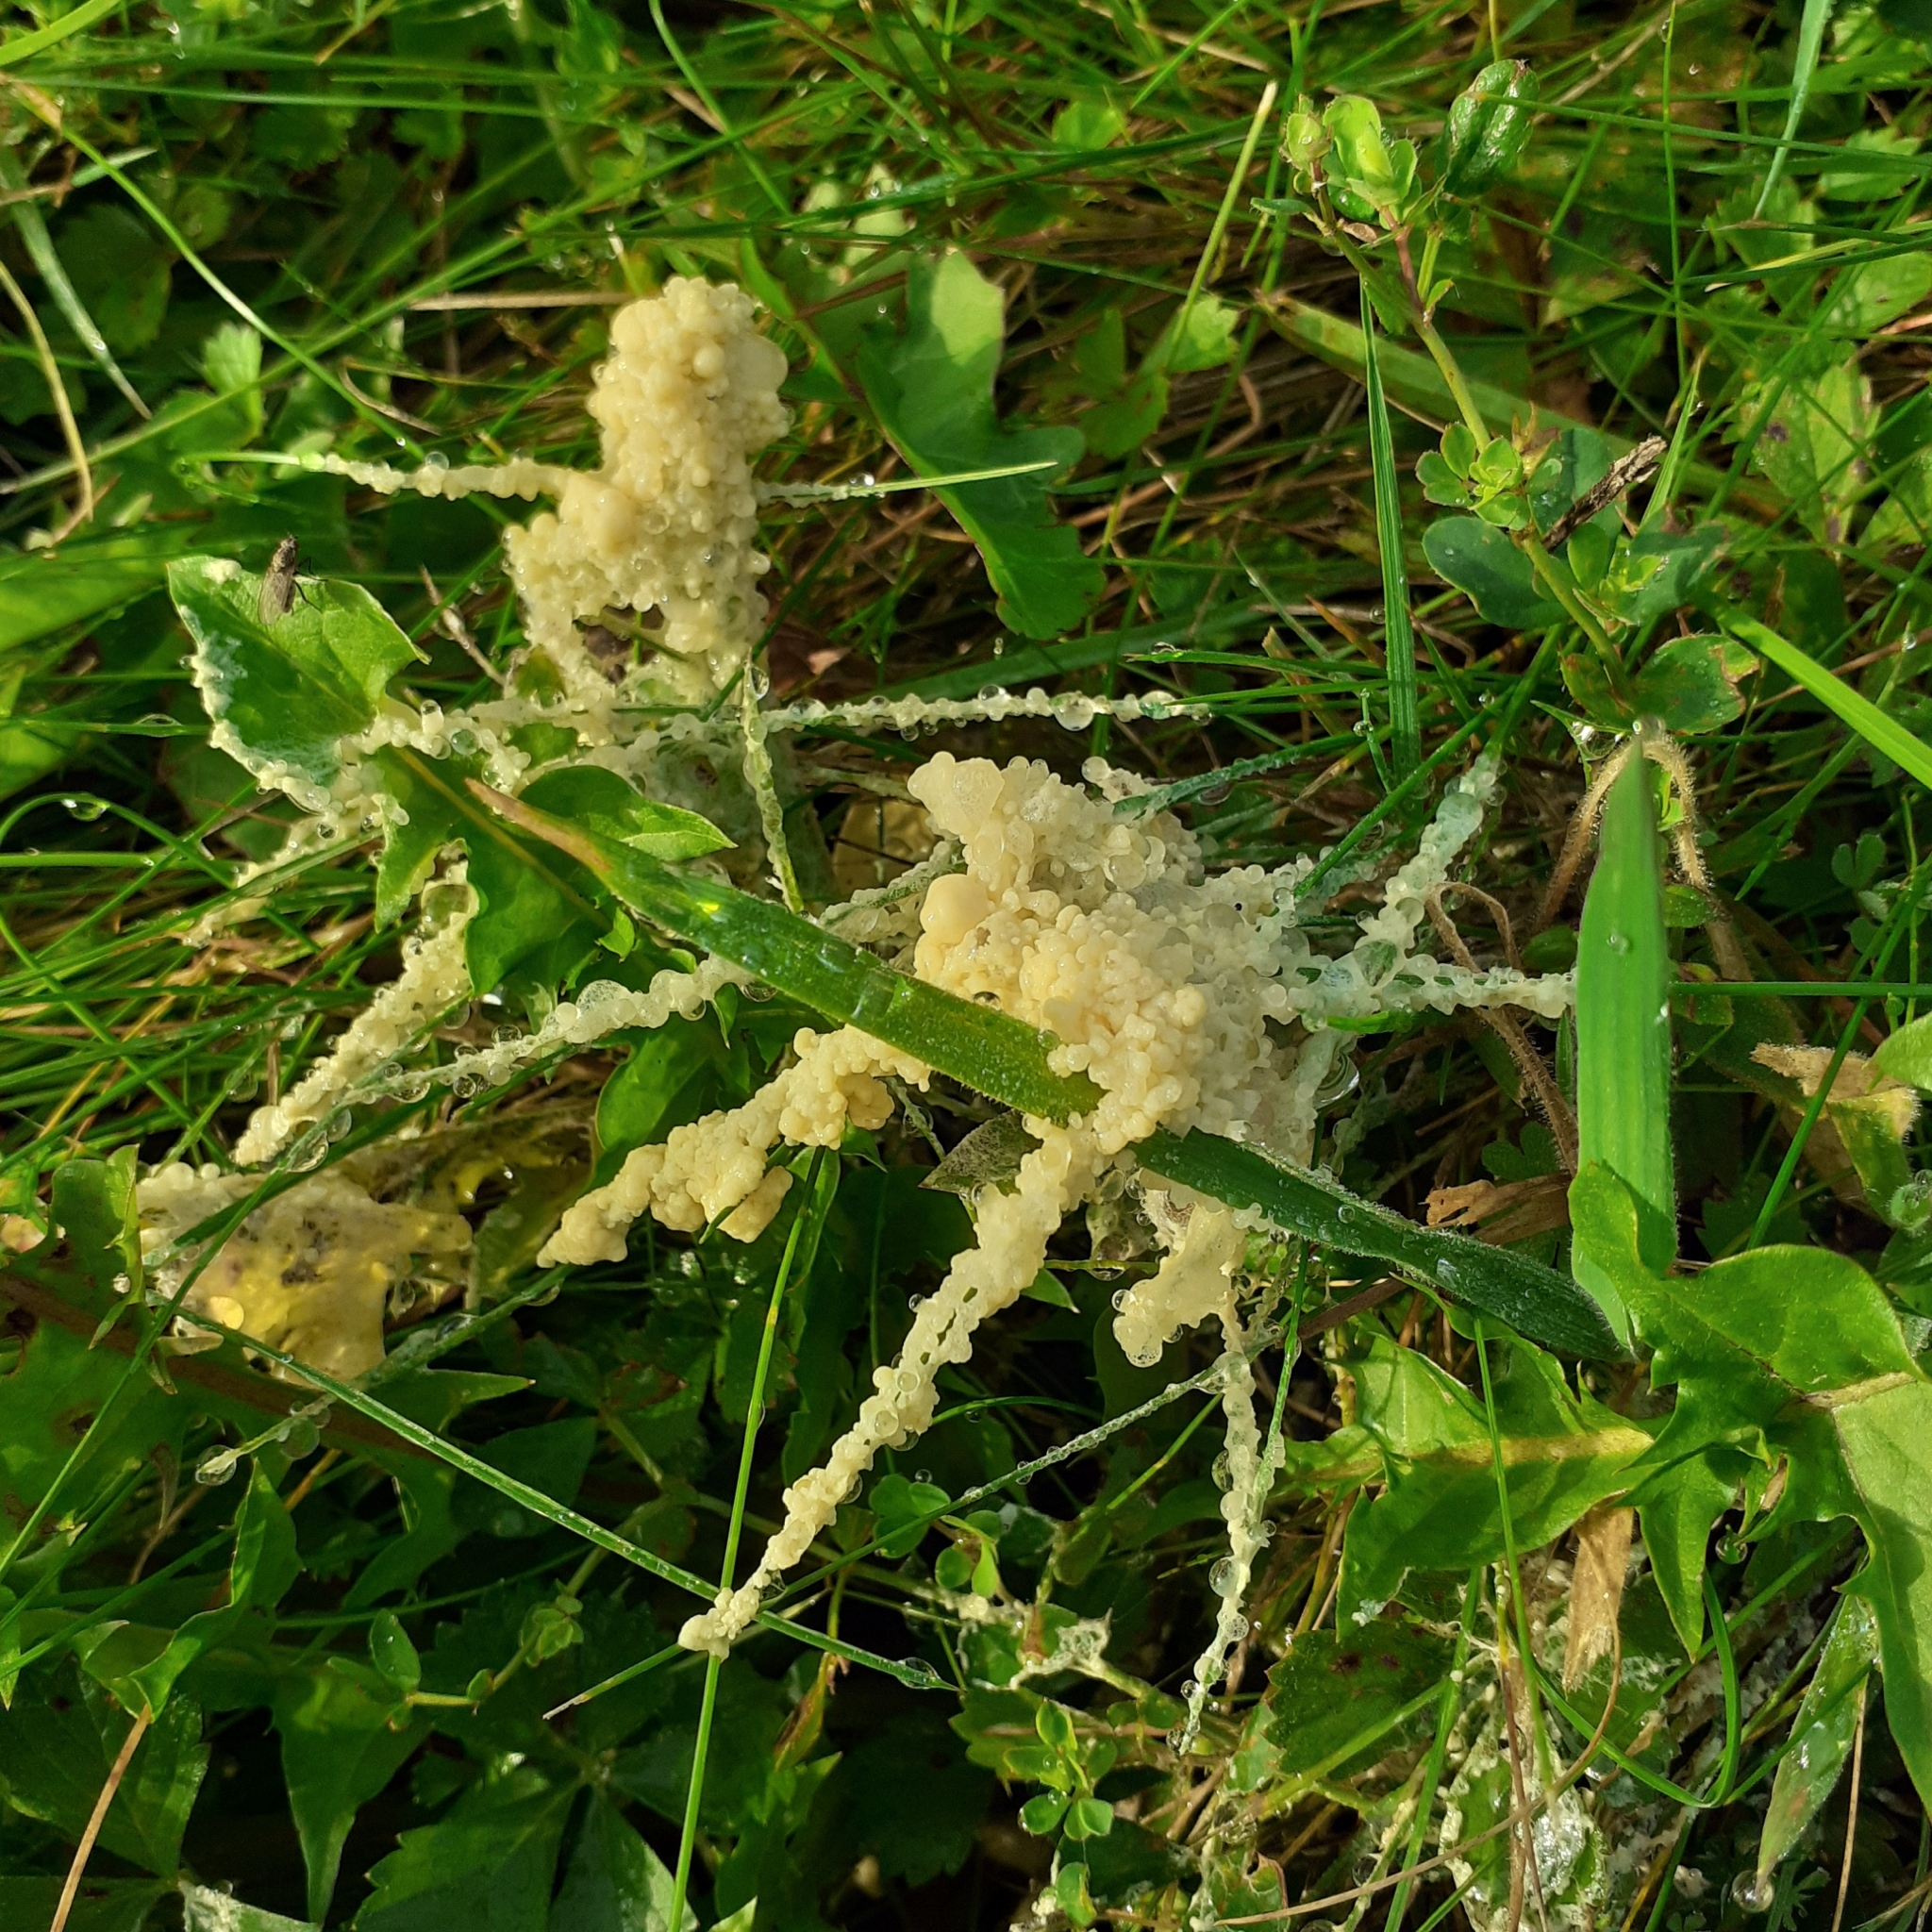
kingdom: Protozoa
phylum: Mycetozoa
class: Myxomycetes
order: Physarales
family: Physaraceae
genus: Didymium
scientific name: Didymium
